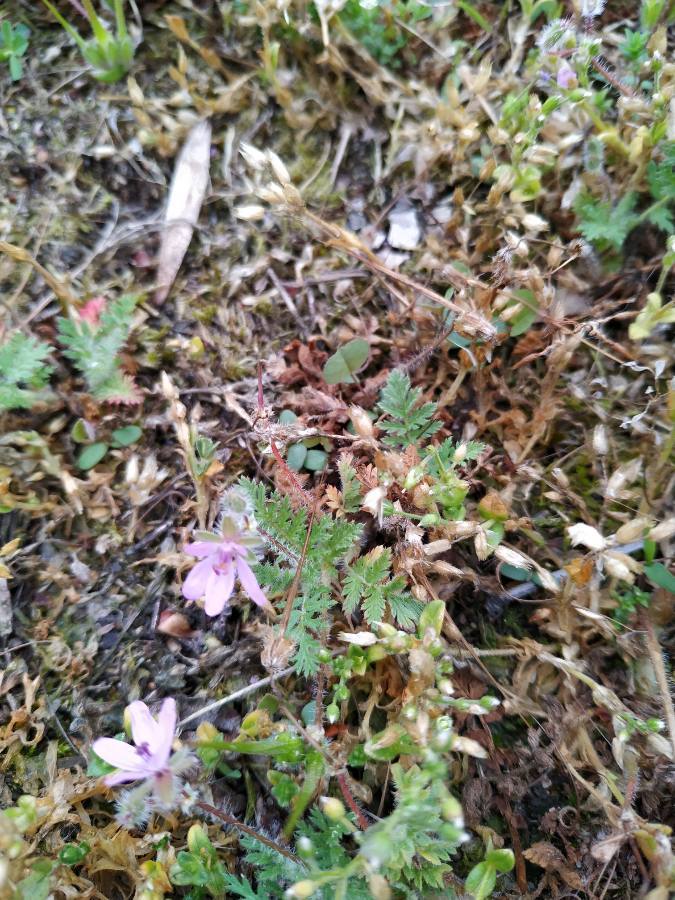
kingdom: Plantae
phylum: Tracheophyta
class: Magnoliopsida
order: Geraniales
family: Geraniaceae
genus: Erodium
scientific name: Erodium cicutarium
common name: Common stork's-bill
